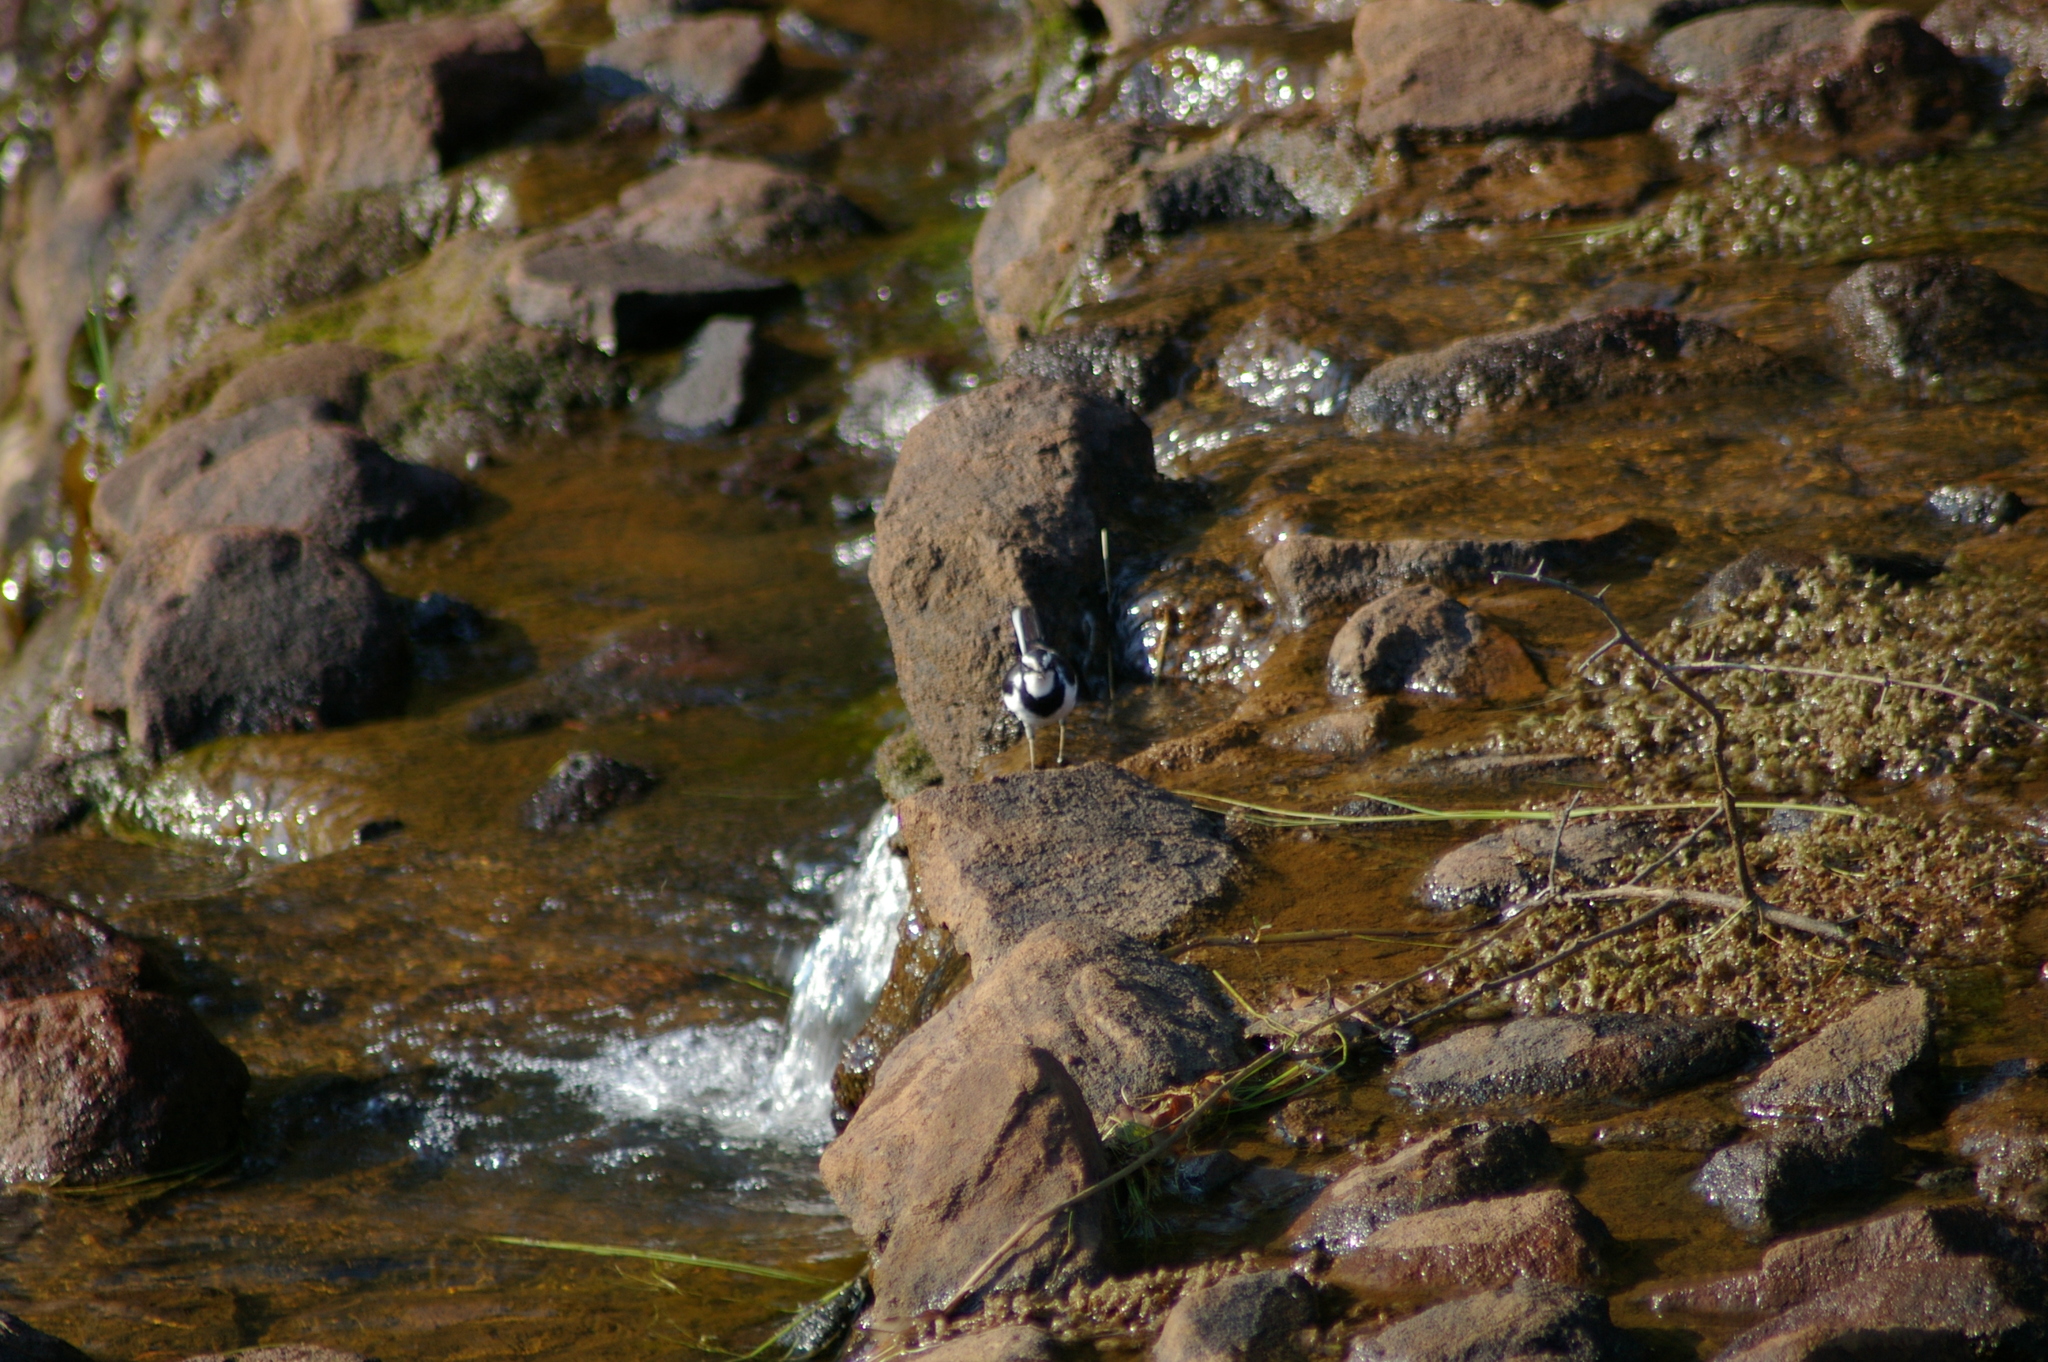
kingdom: Animalia
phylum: Chordata
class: Aves
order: Passeriformes
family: Motacillidae
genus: Motacilla
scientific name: Motacilla aguimp
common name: African pied wagtail
